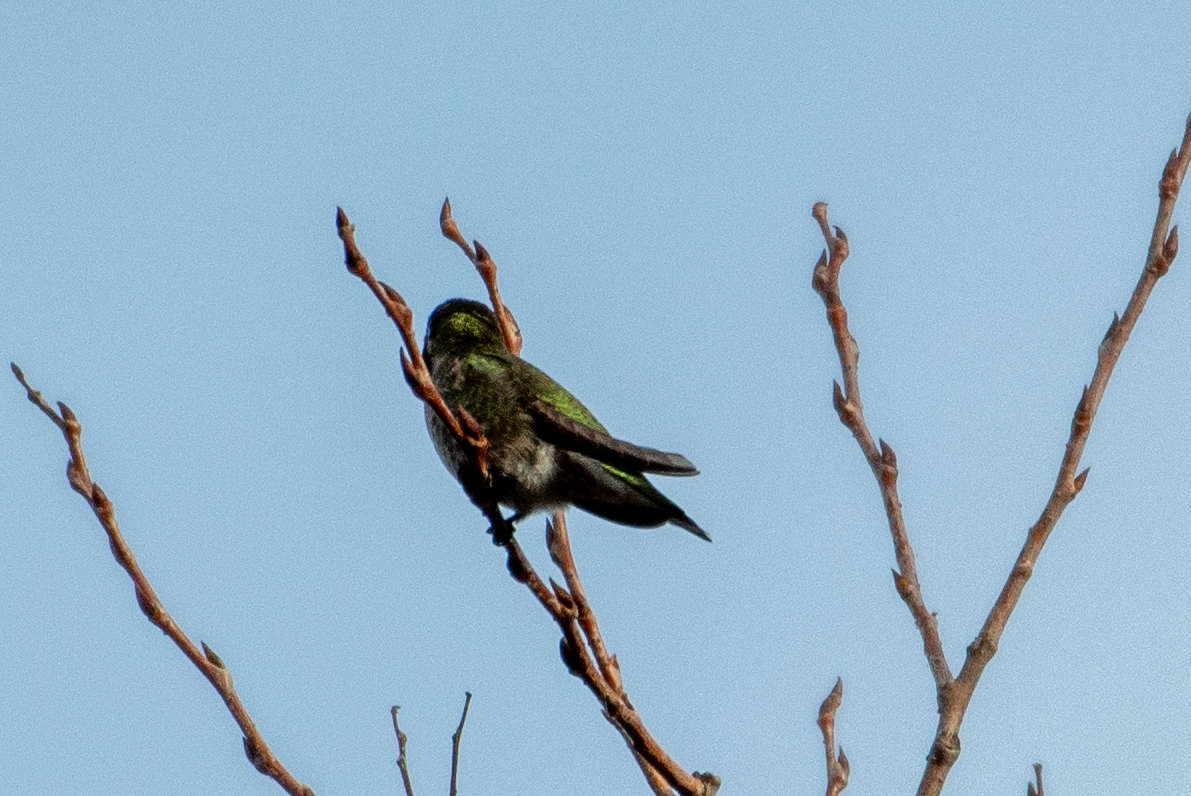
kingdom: Animalia
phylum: Chordata
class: Aves
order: Apodiformes
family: Trochilidae
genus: Calypte
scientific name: Calypte anna
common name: Anna's hummingbird
